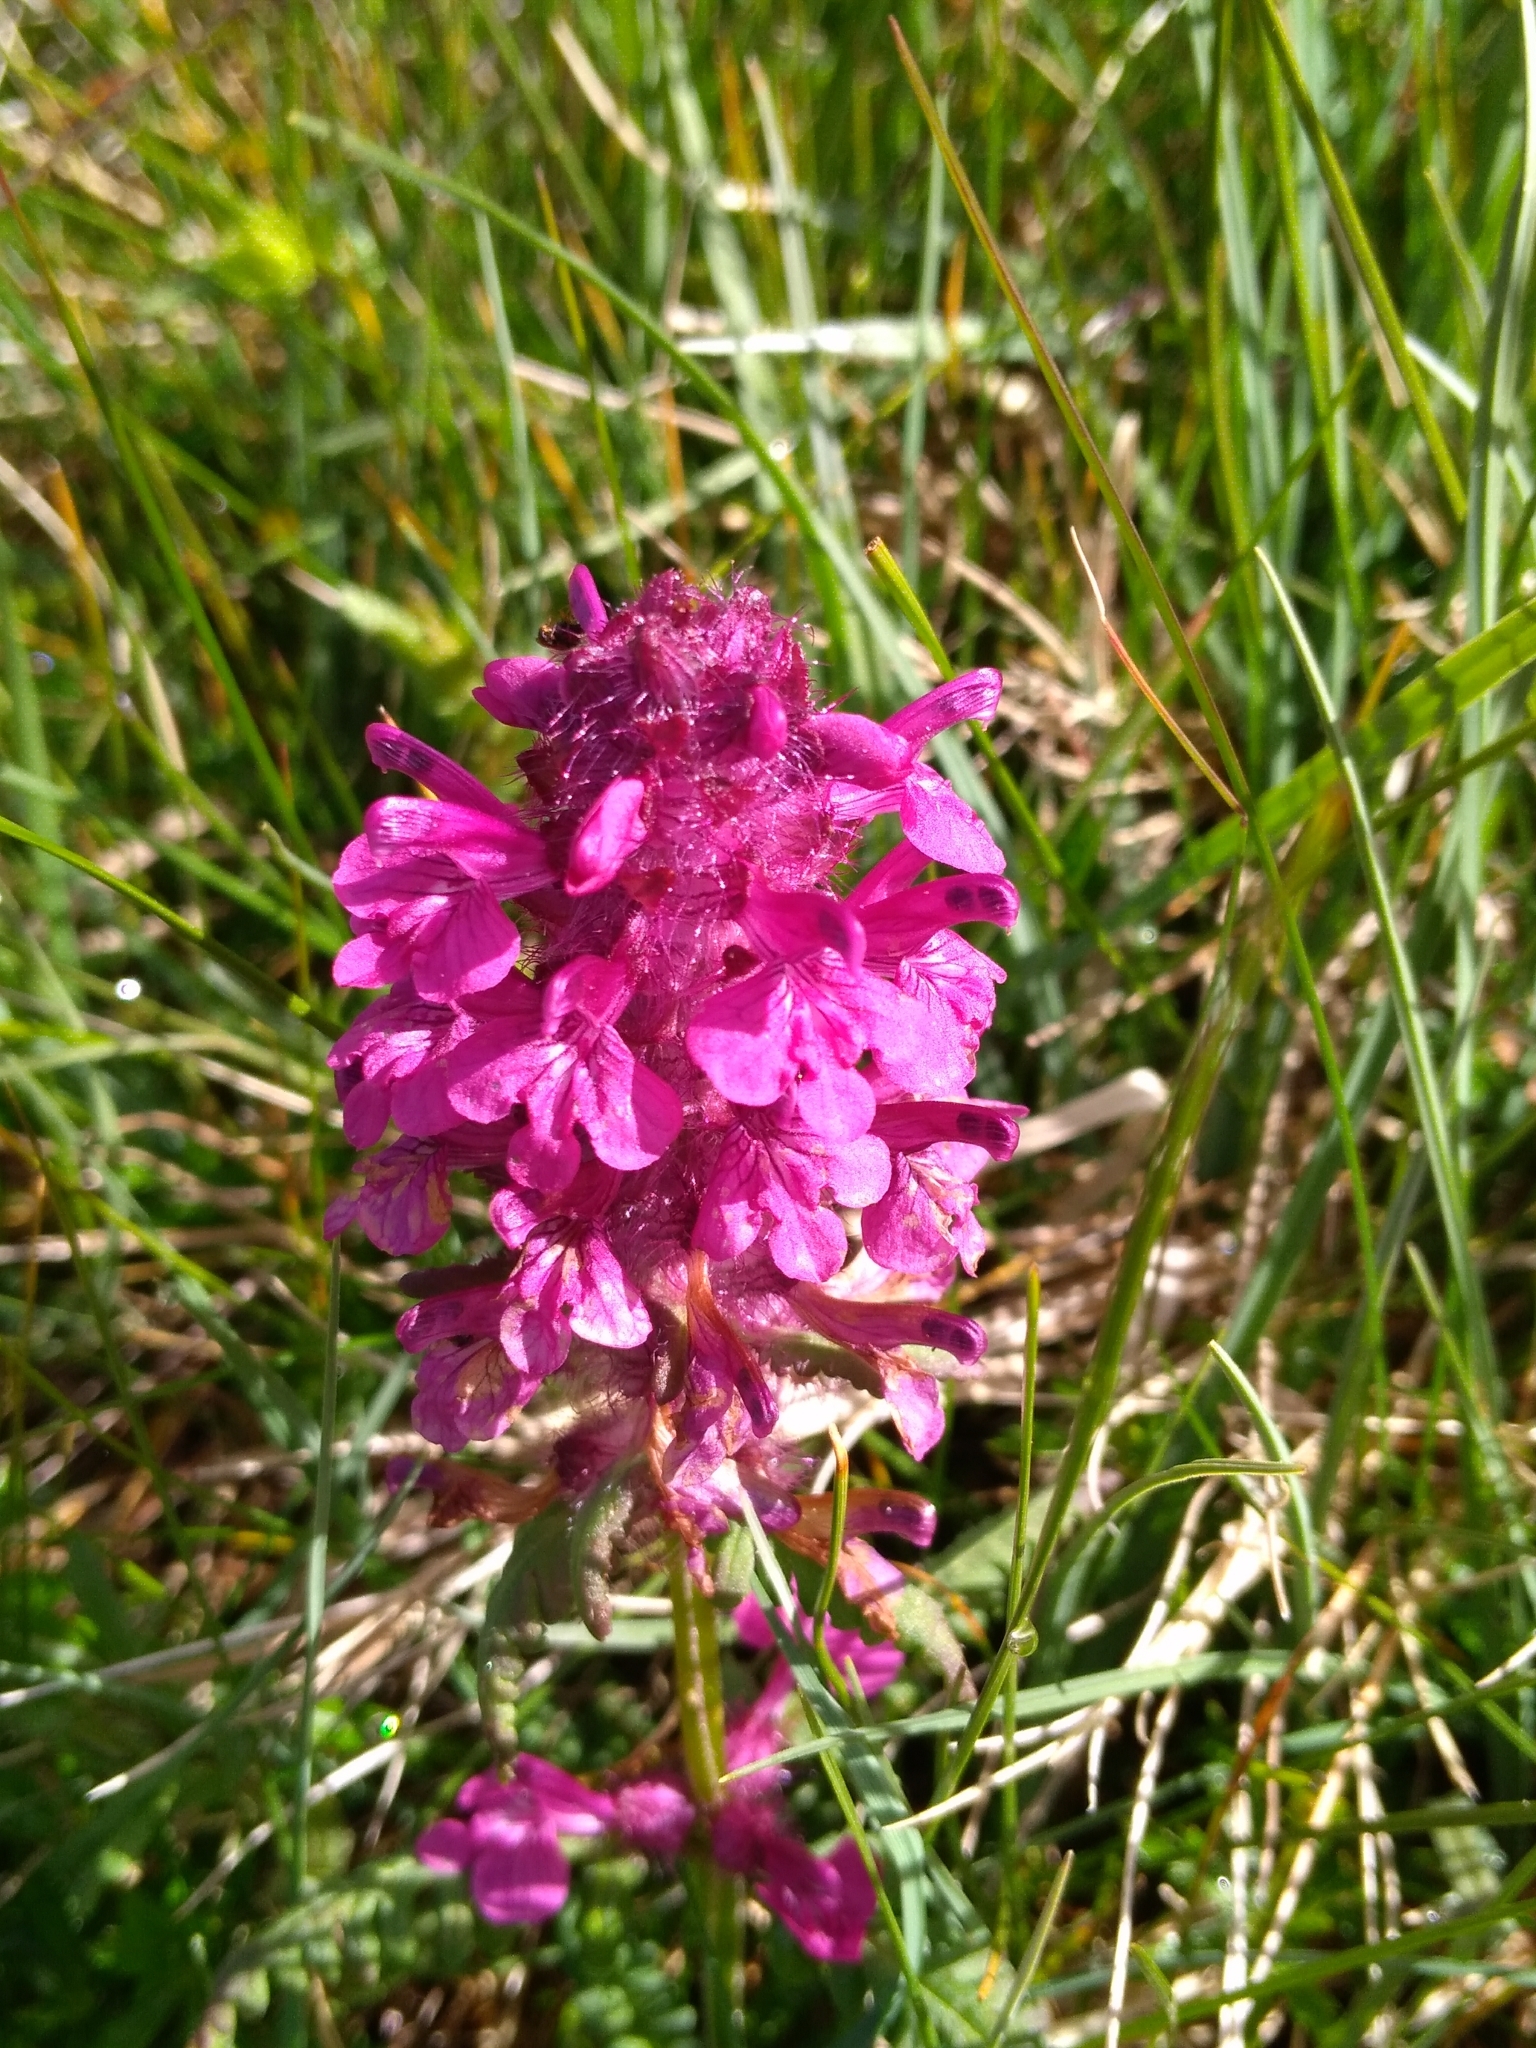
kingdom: Plantae
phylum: Tracheophyta
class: Magnoliopsida
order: Lamiales
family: Orobanchaceae
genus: Pedicularis
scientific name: Pedicularis verticillata
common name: Whorled lousewort
